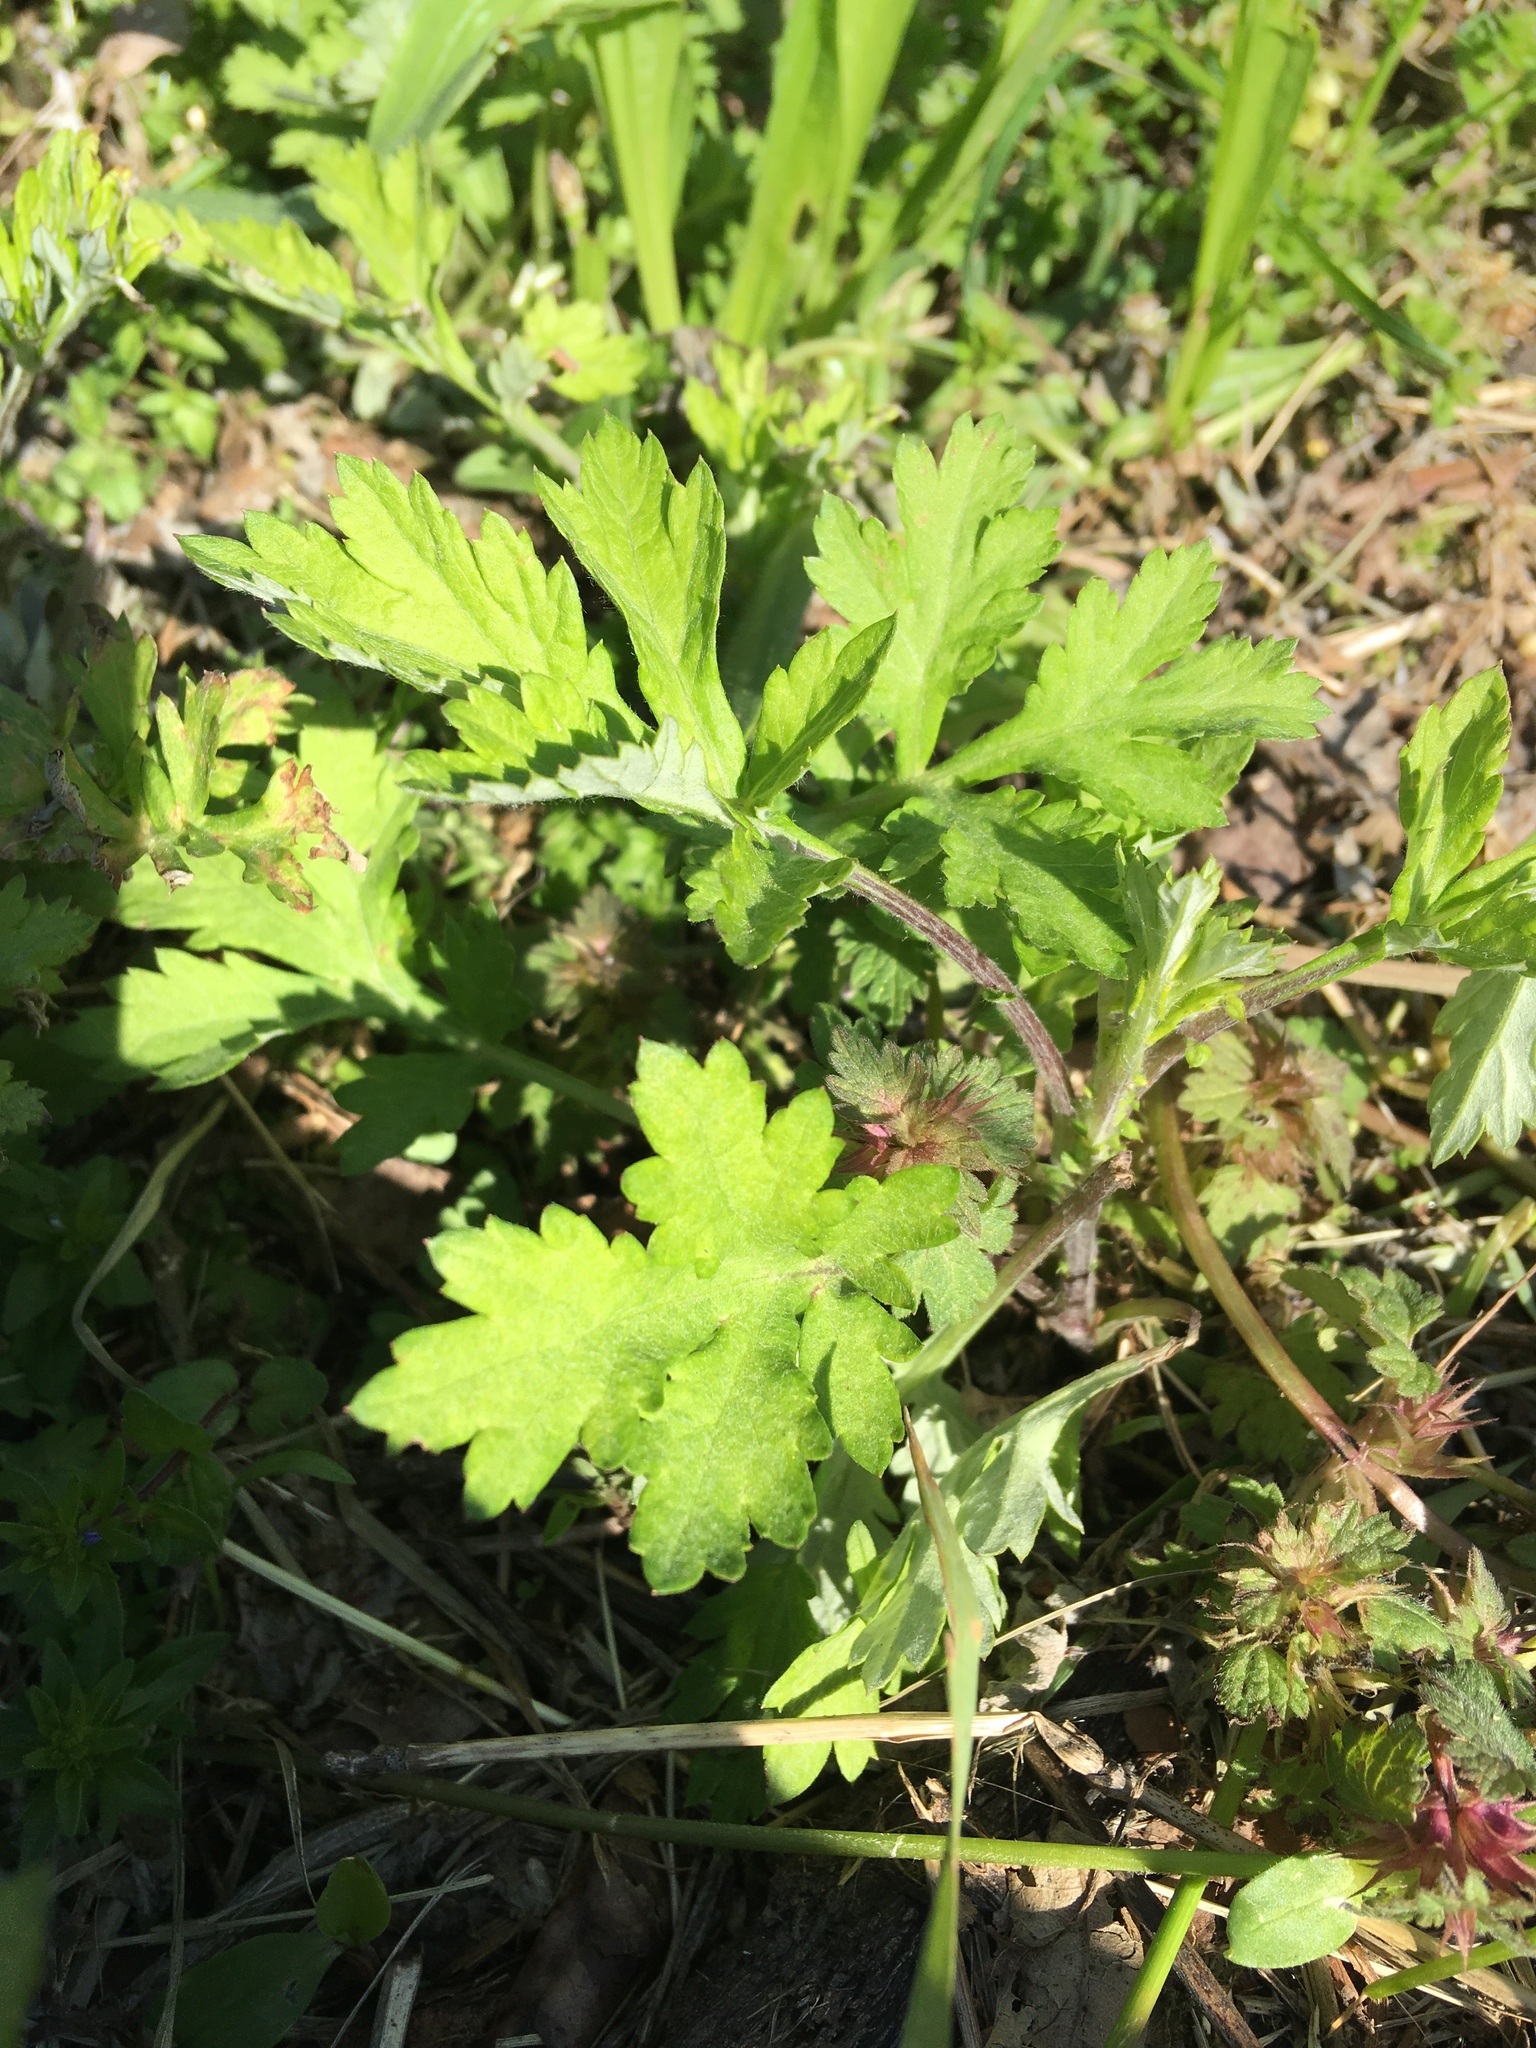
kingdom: Plantae
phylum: Tracheophyta
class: Magnoliopsida
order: Asterales
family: Asteraceae
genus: Artemisia
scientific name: Artemisia vulgaris
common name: Mugwort
